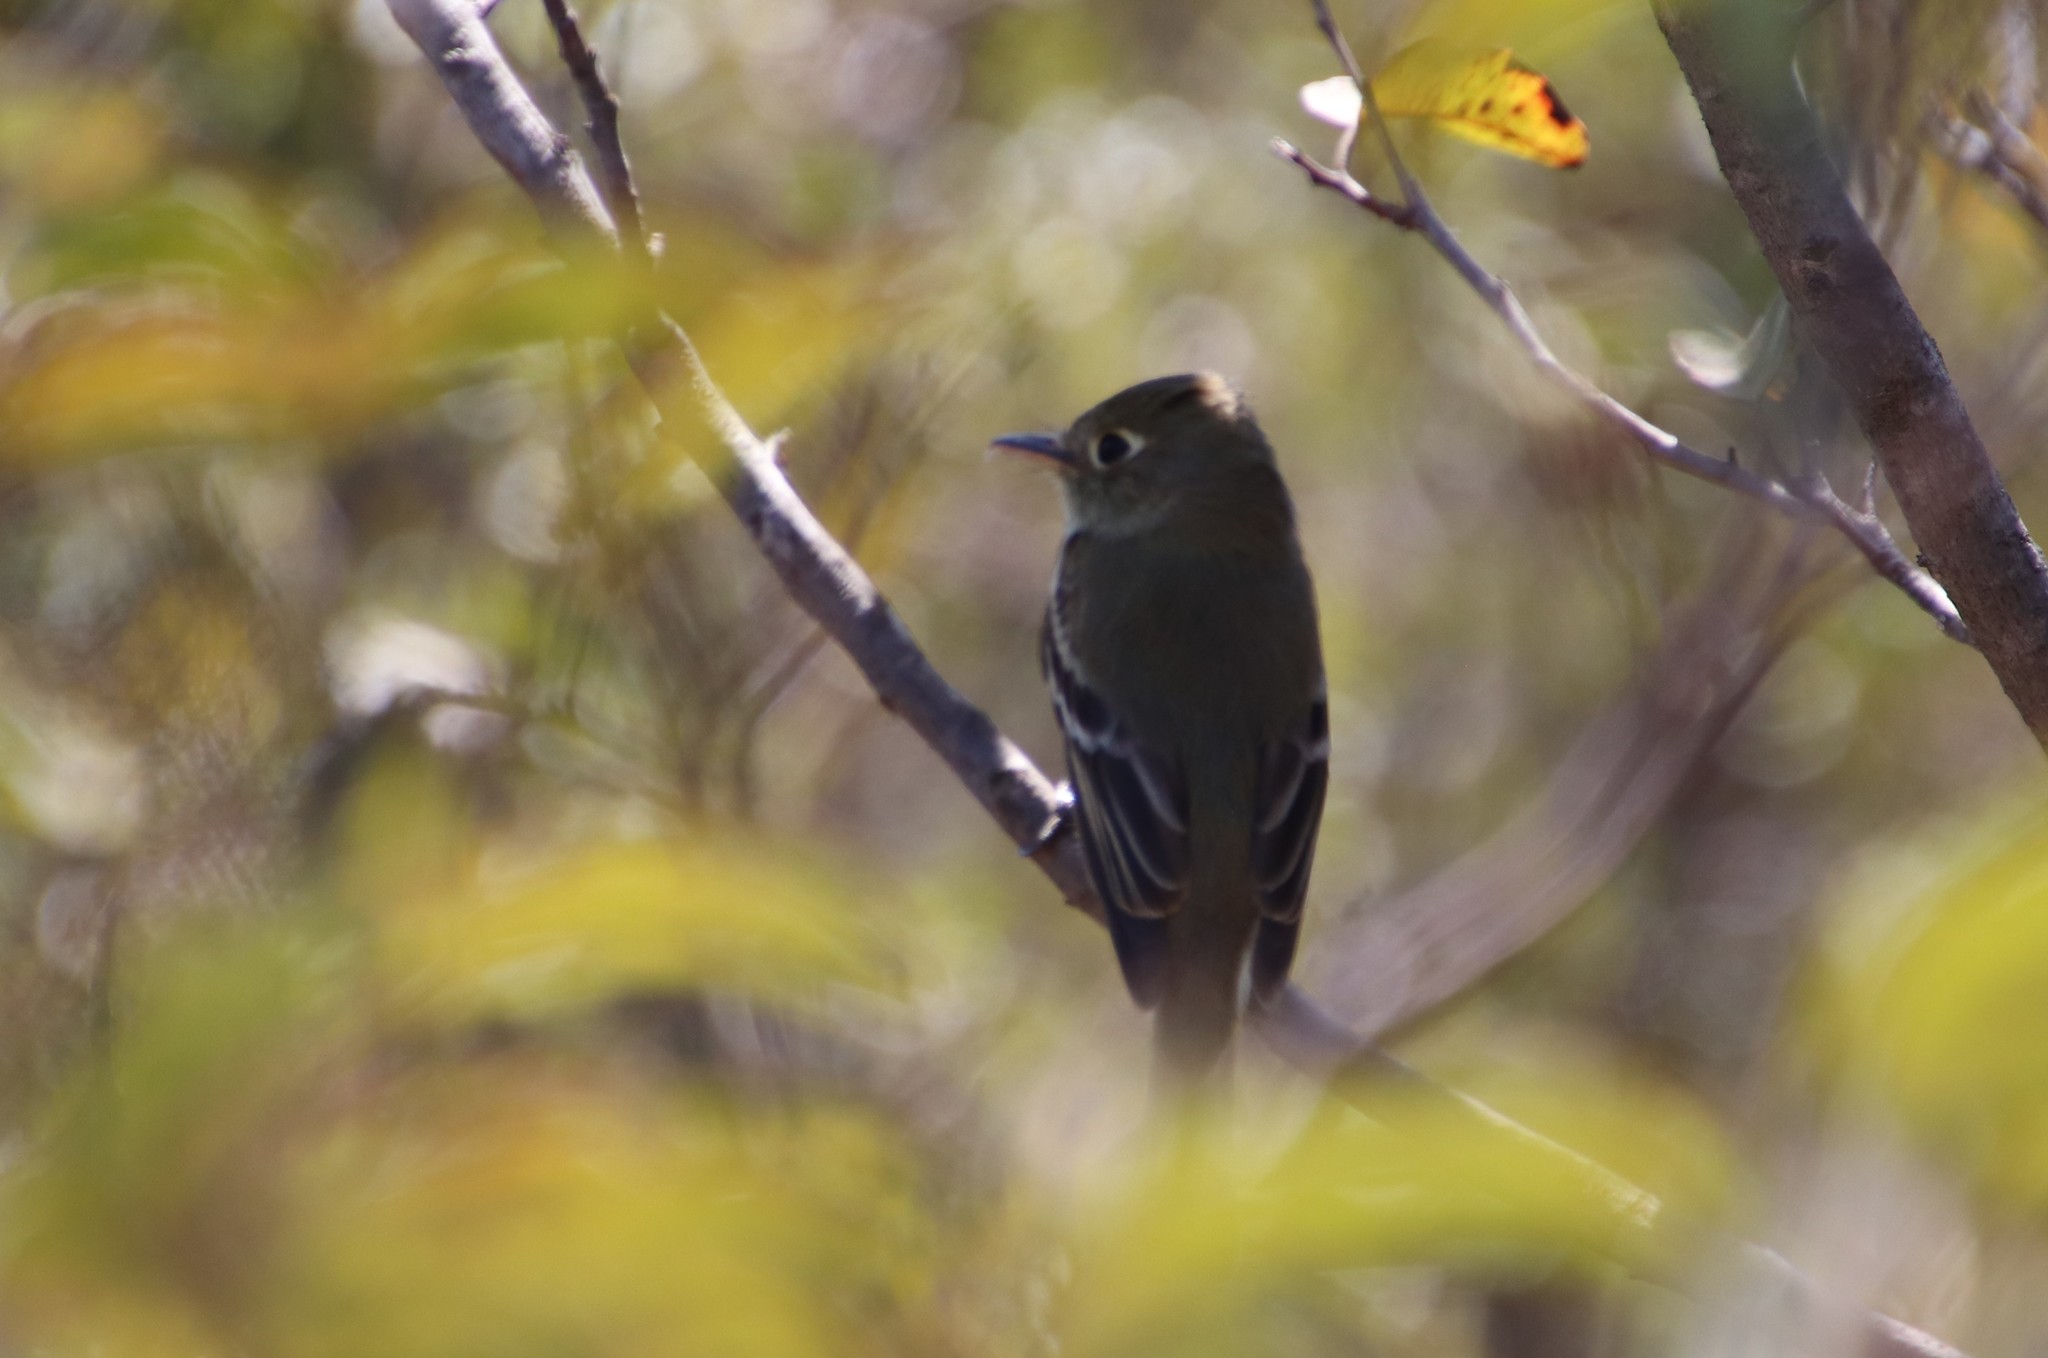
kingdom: Animalia
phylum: Chordata
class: Aves
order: Passeriformes
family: Tyrannidae
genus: Empidonax
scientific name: Empidonax difficilis
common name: Pacific-slope flycatcher
